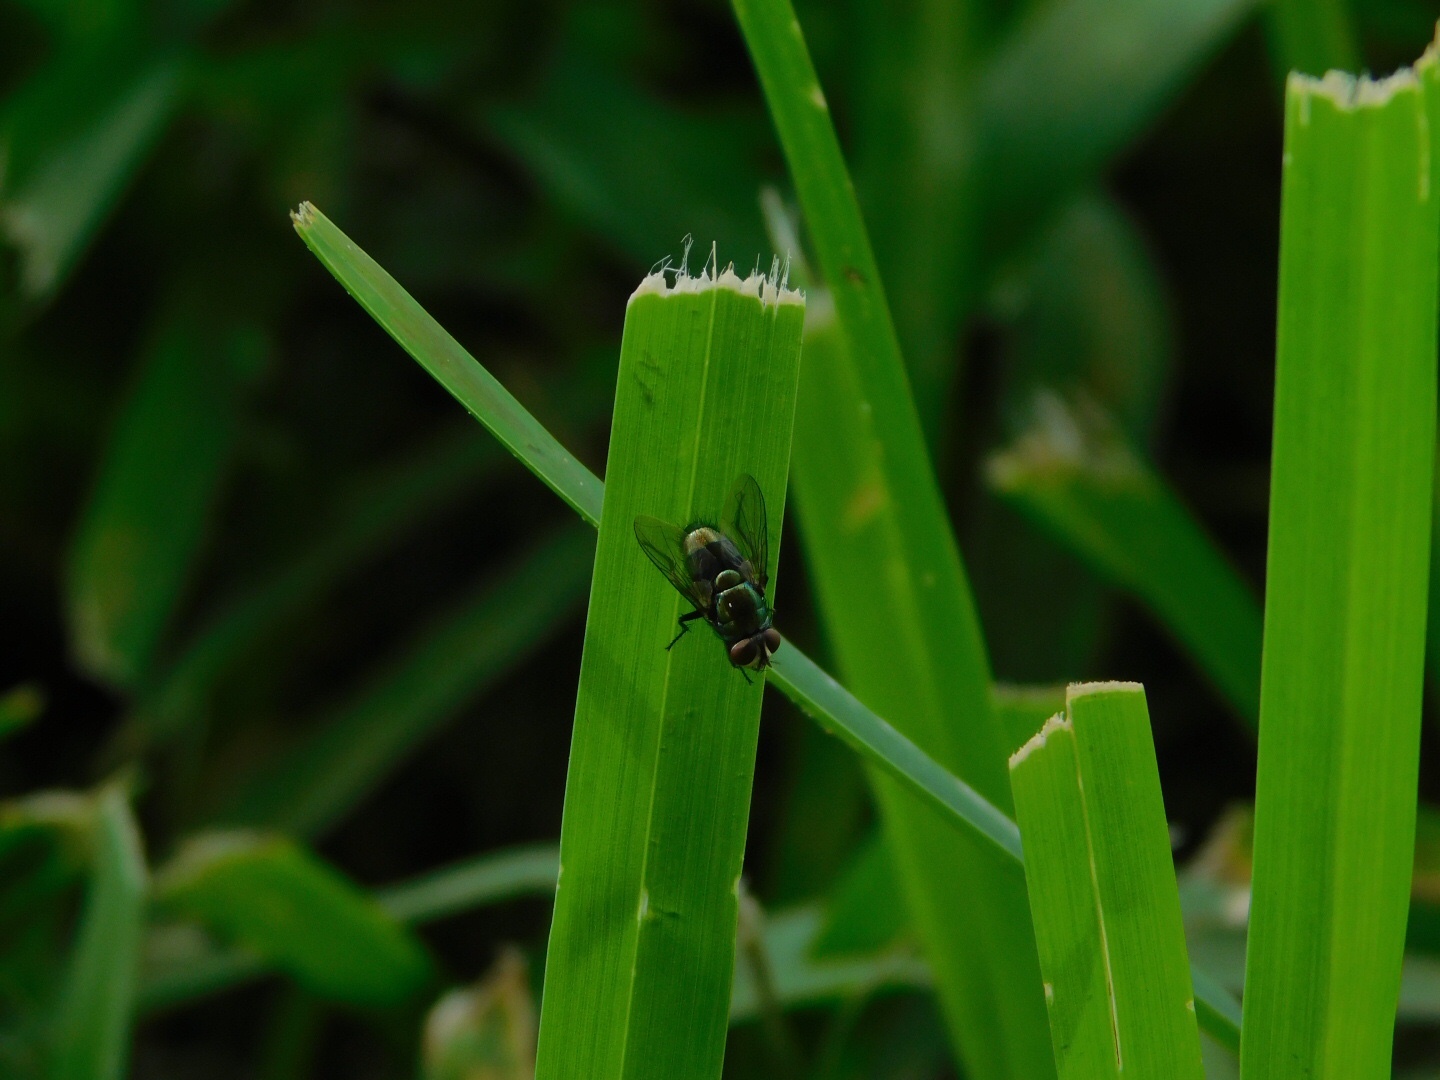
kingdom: Animalia
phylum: Arthropoda
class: Insecta
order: Diptera
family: Calliphoridae
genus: Lucilia
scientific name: Lucilia cuprina
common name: Sheep blow fly
